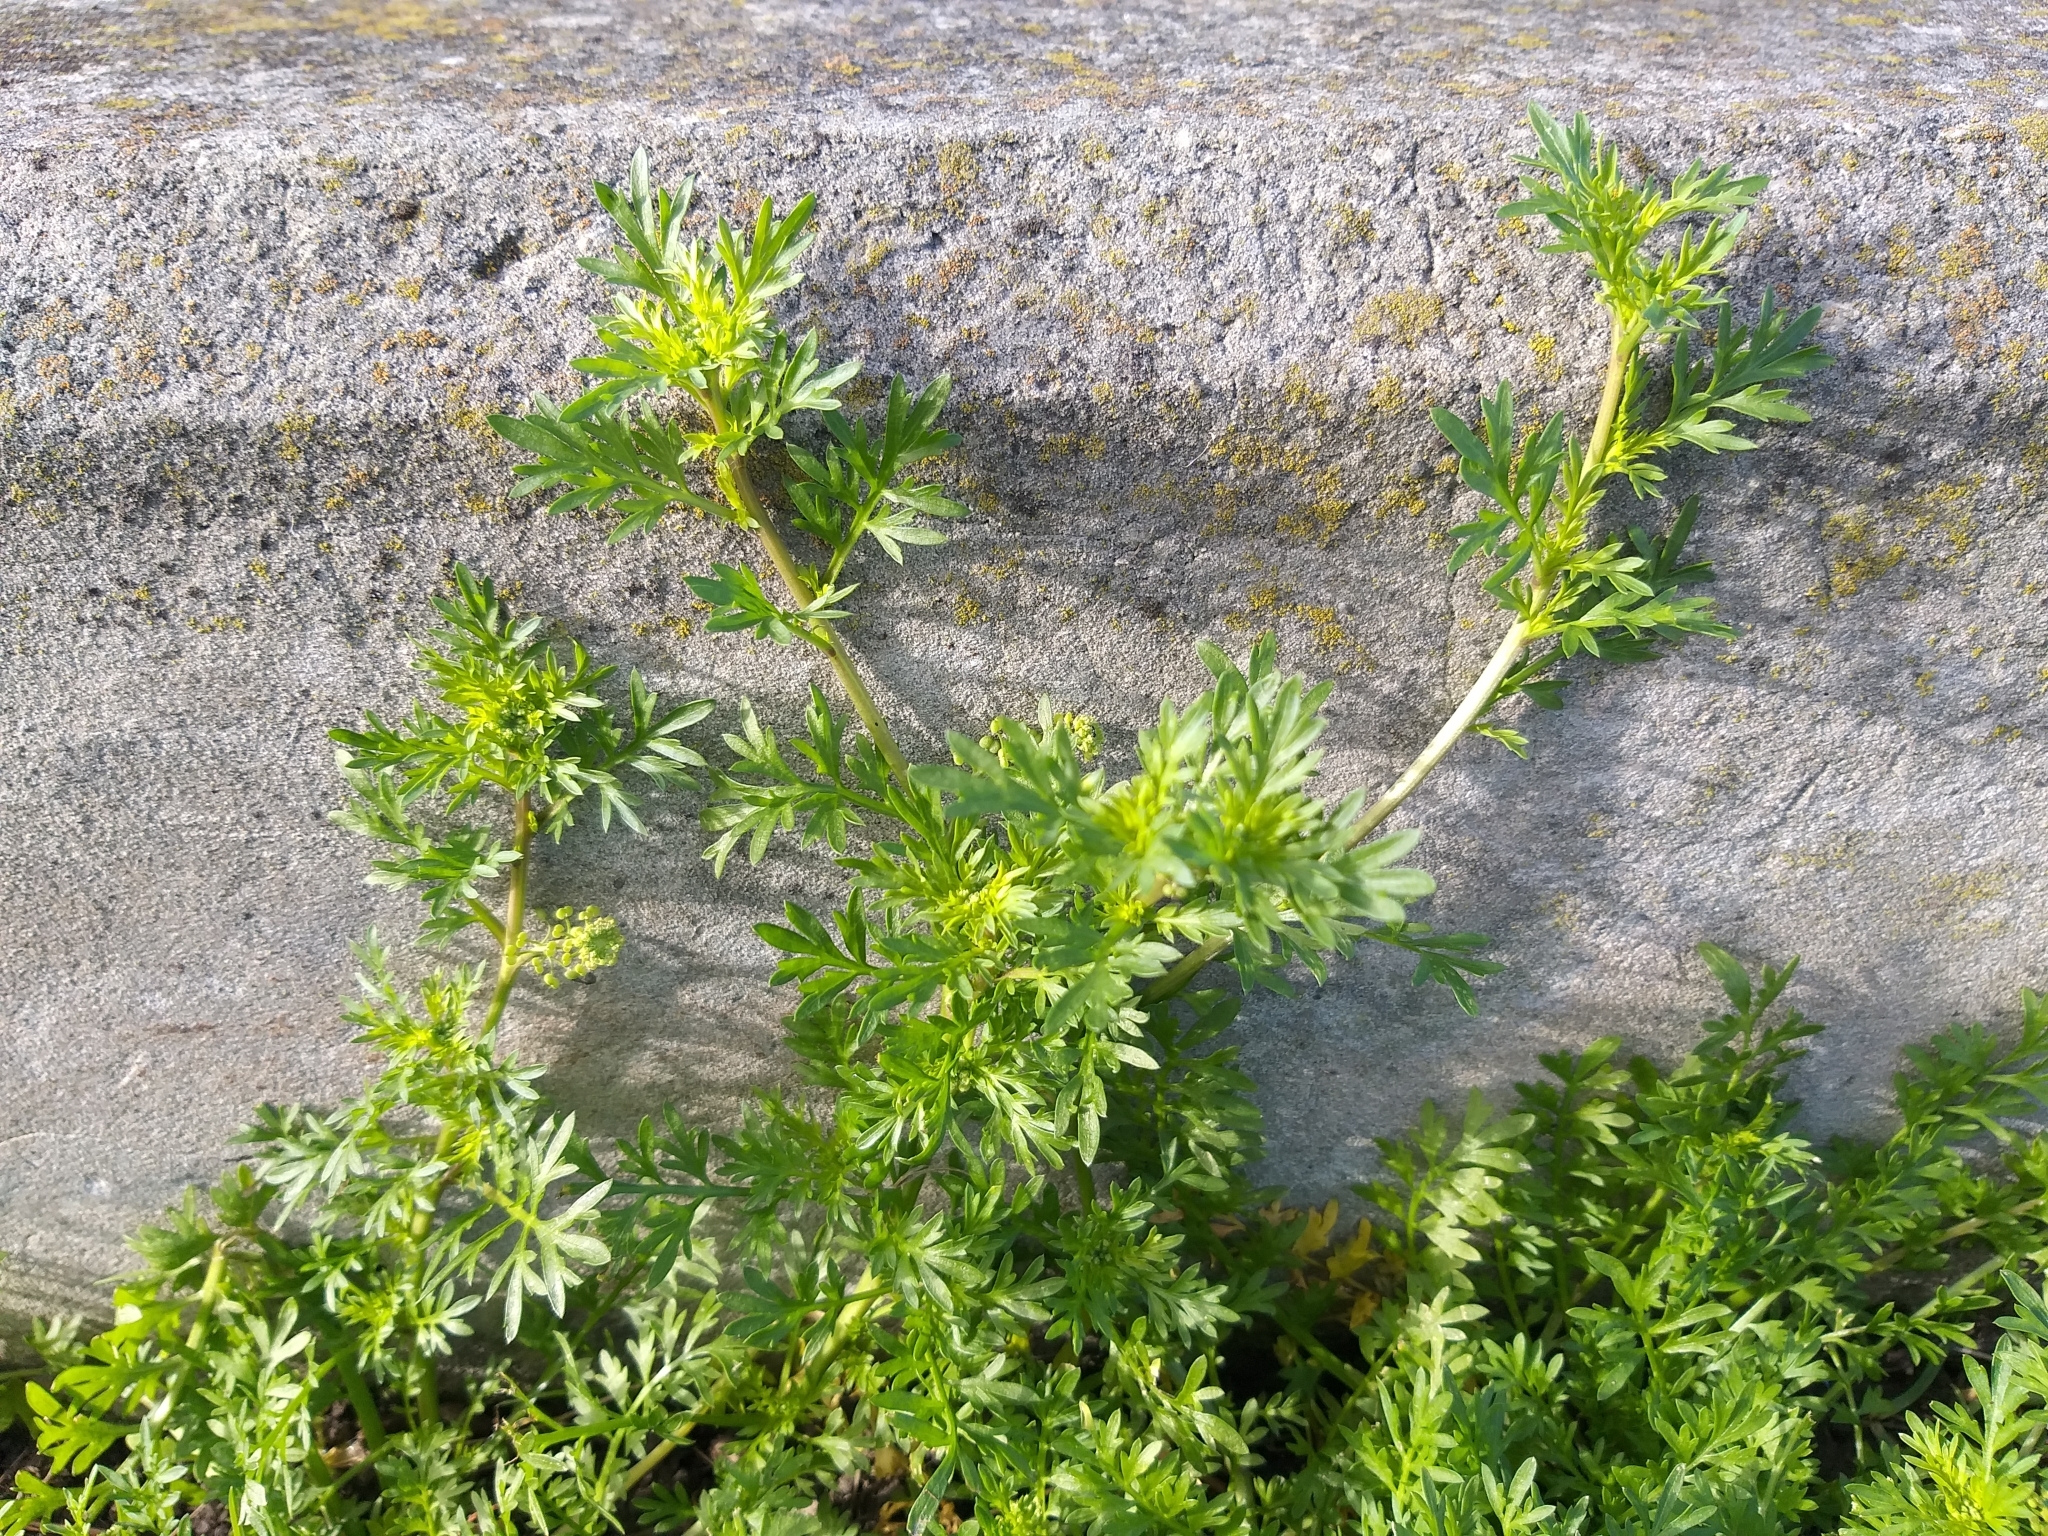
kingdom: Plantae
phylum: Tracheophyta
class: Magnoliopsida
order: Brassicales
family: Brassicaceae
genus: Lepidium
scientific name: Lepidium didymum
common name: Lesser swinecress
